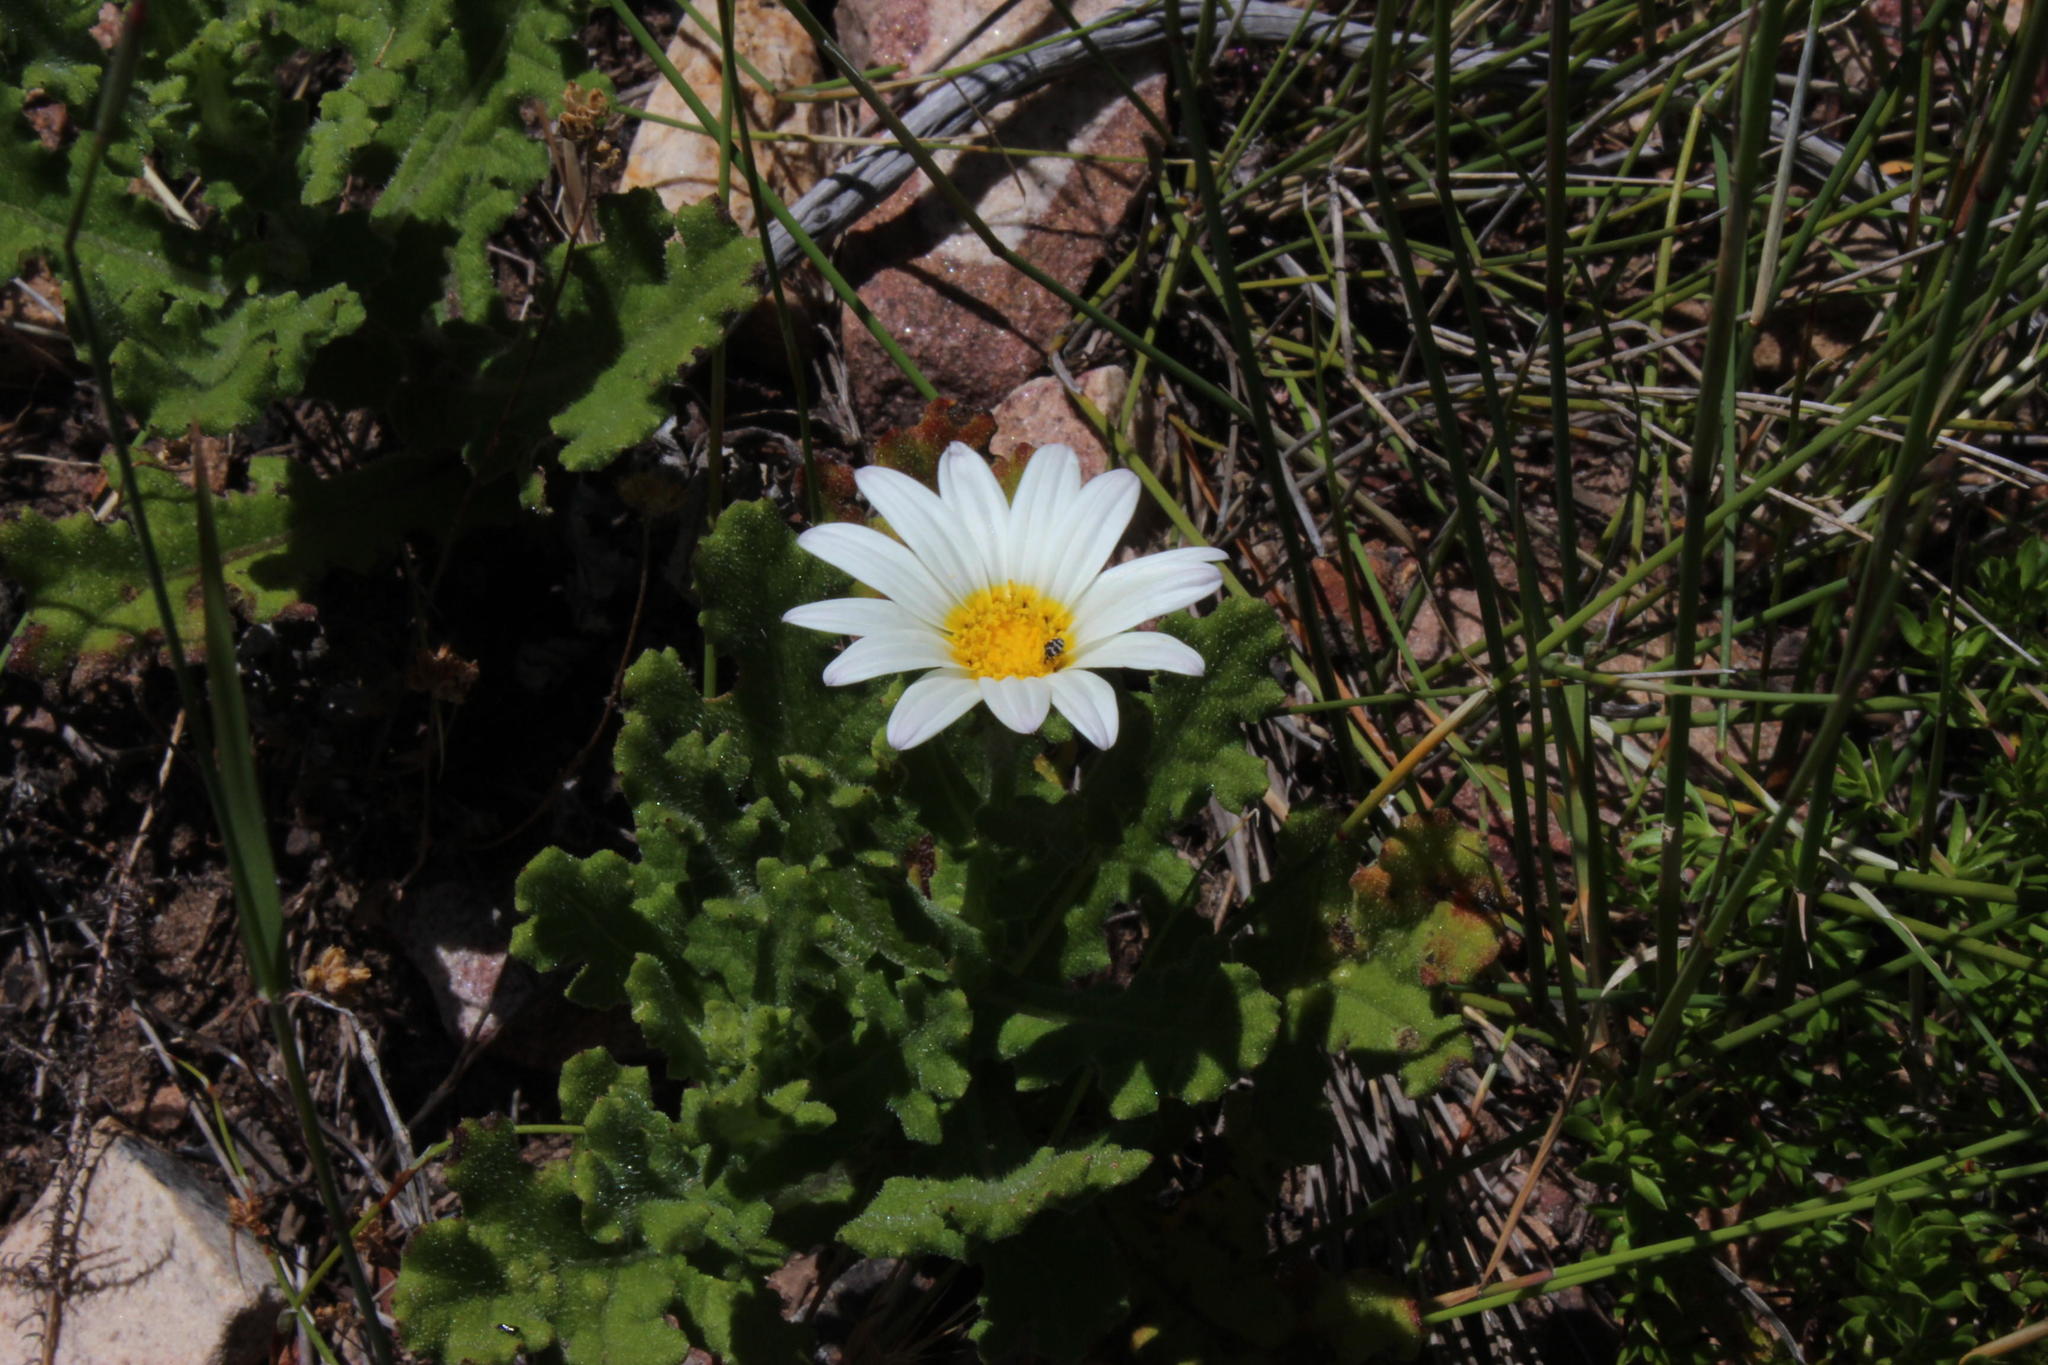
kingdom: Plantae
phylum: Tracheophyta
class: Magnoliopsida
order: Asterales
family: Asteraceae
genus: Arctotis
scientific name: Arctotis aspera
